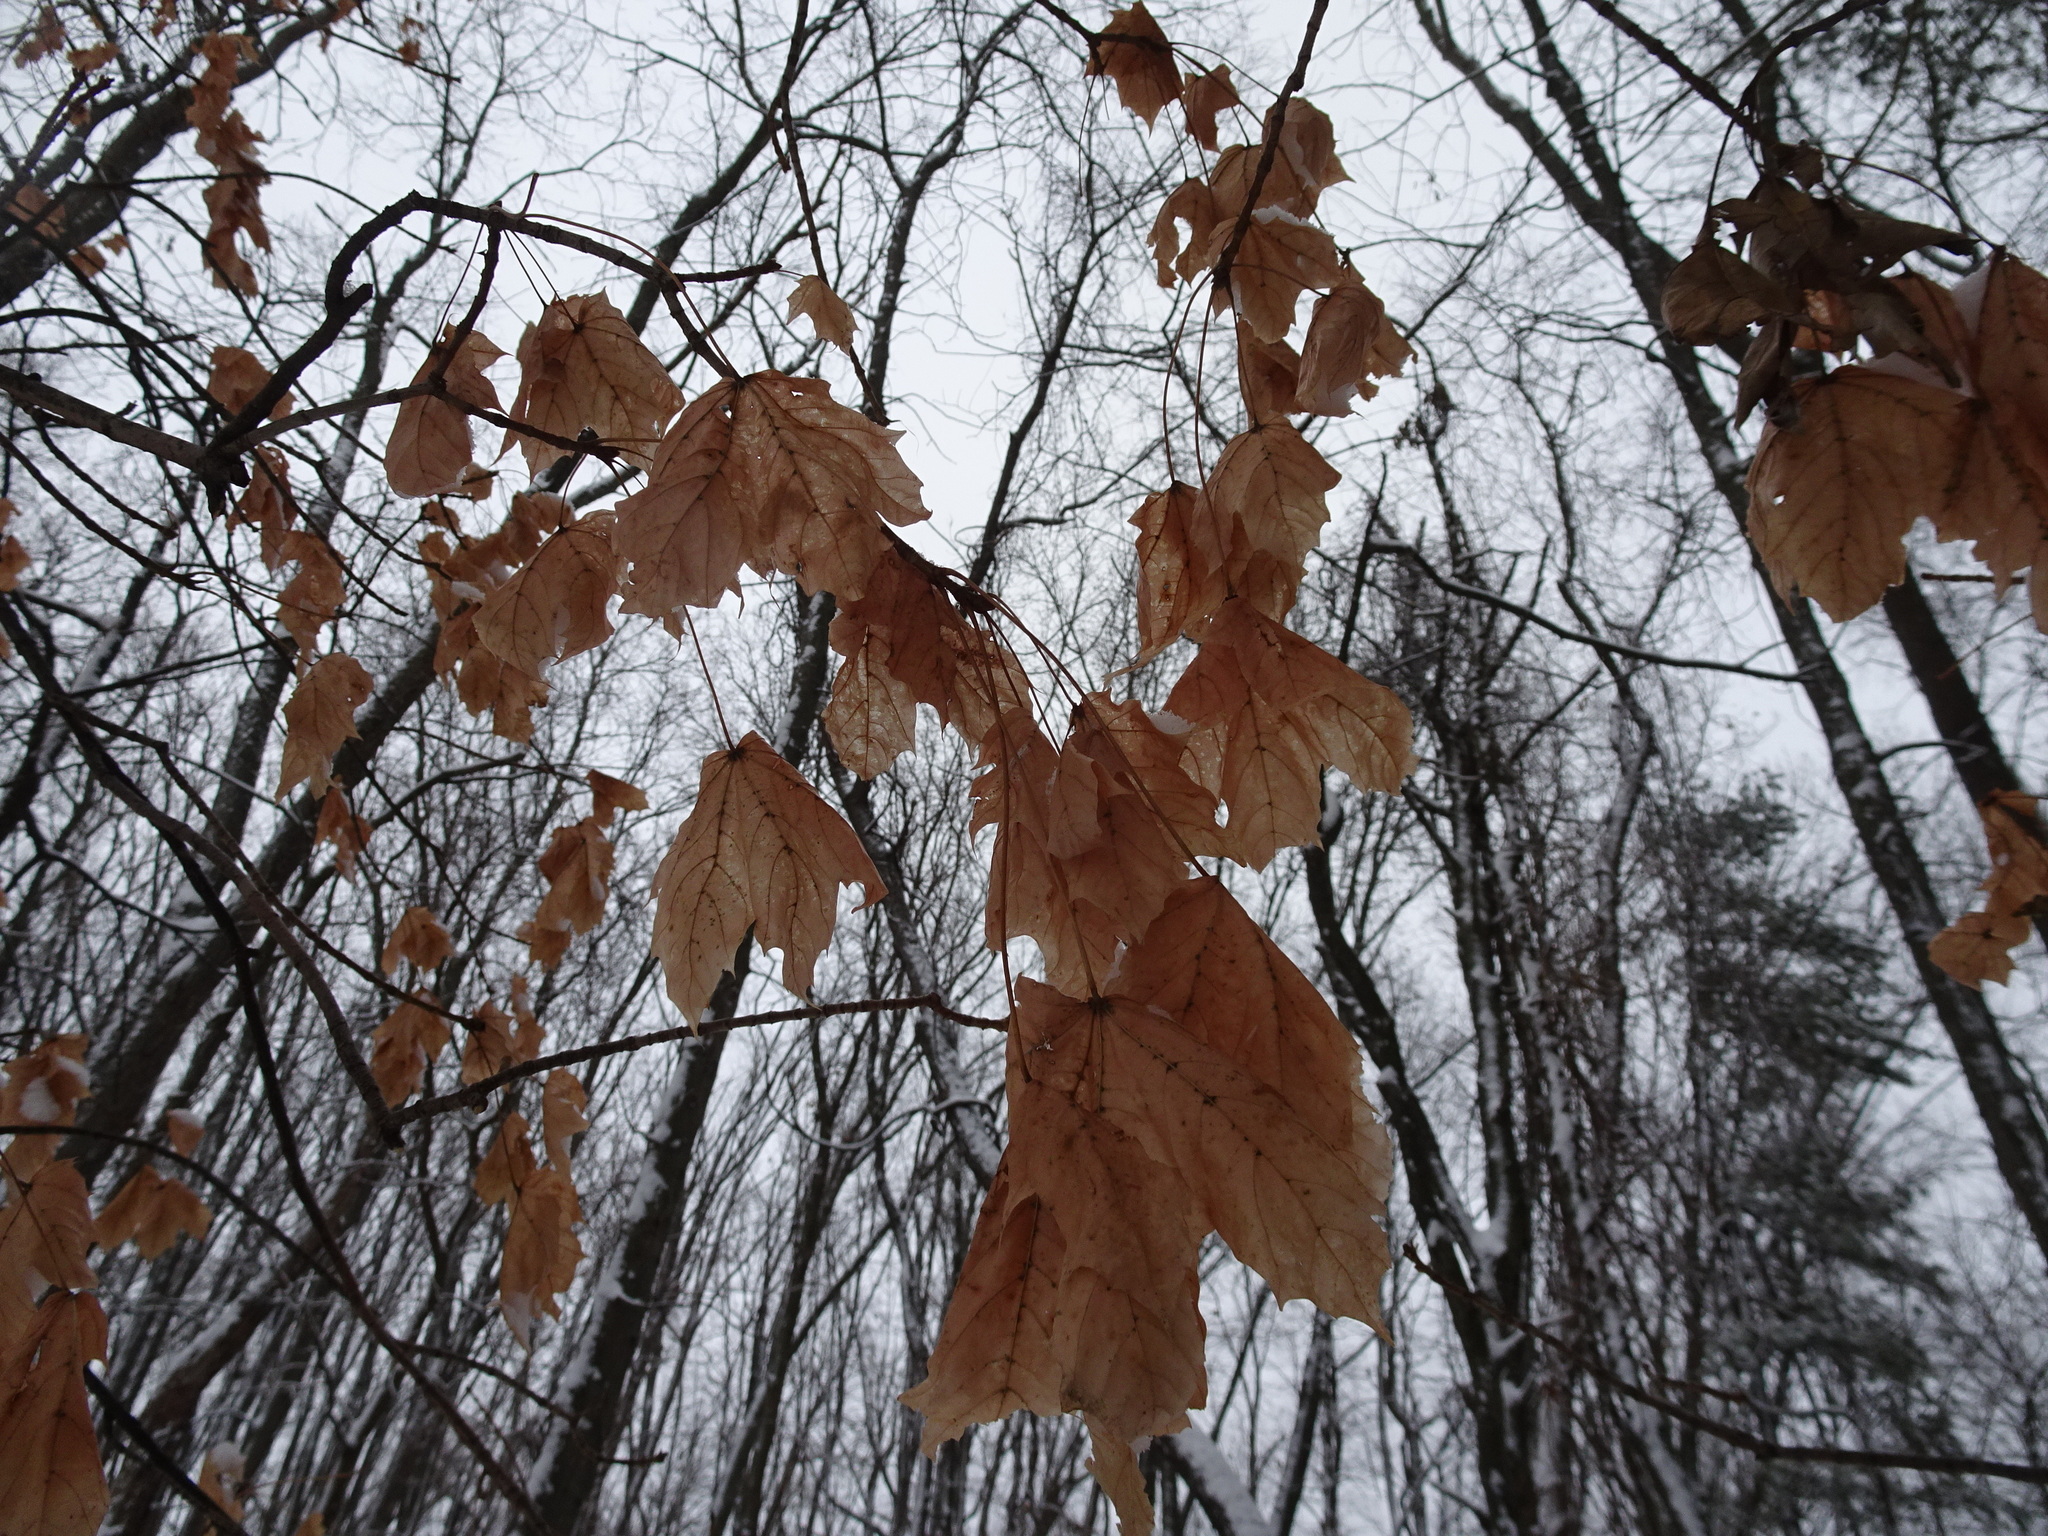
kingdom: Plantae
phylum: Tracheophyta
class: Magnoliopsida
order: Sapindales
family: Sapindaceae
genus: Acer
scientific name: Acer saccharum
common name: Sugar maple
